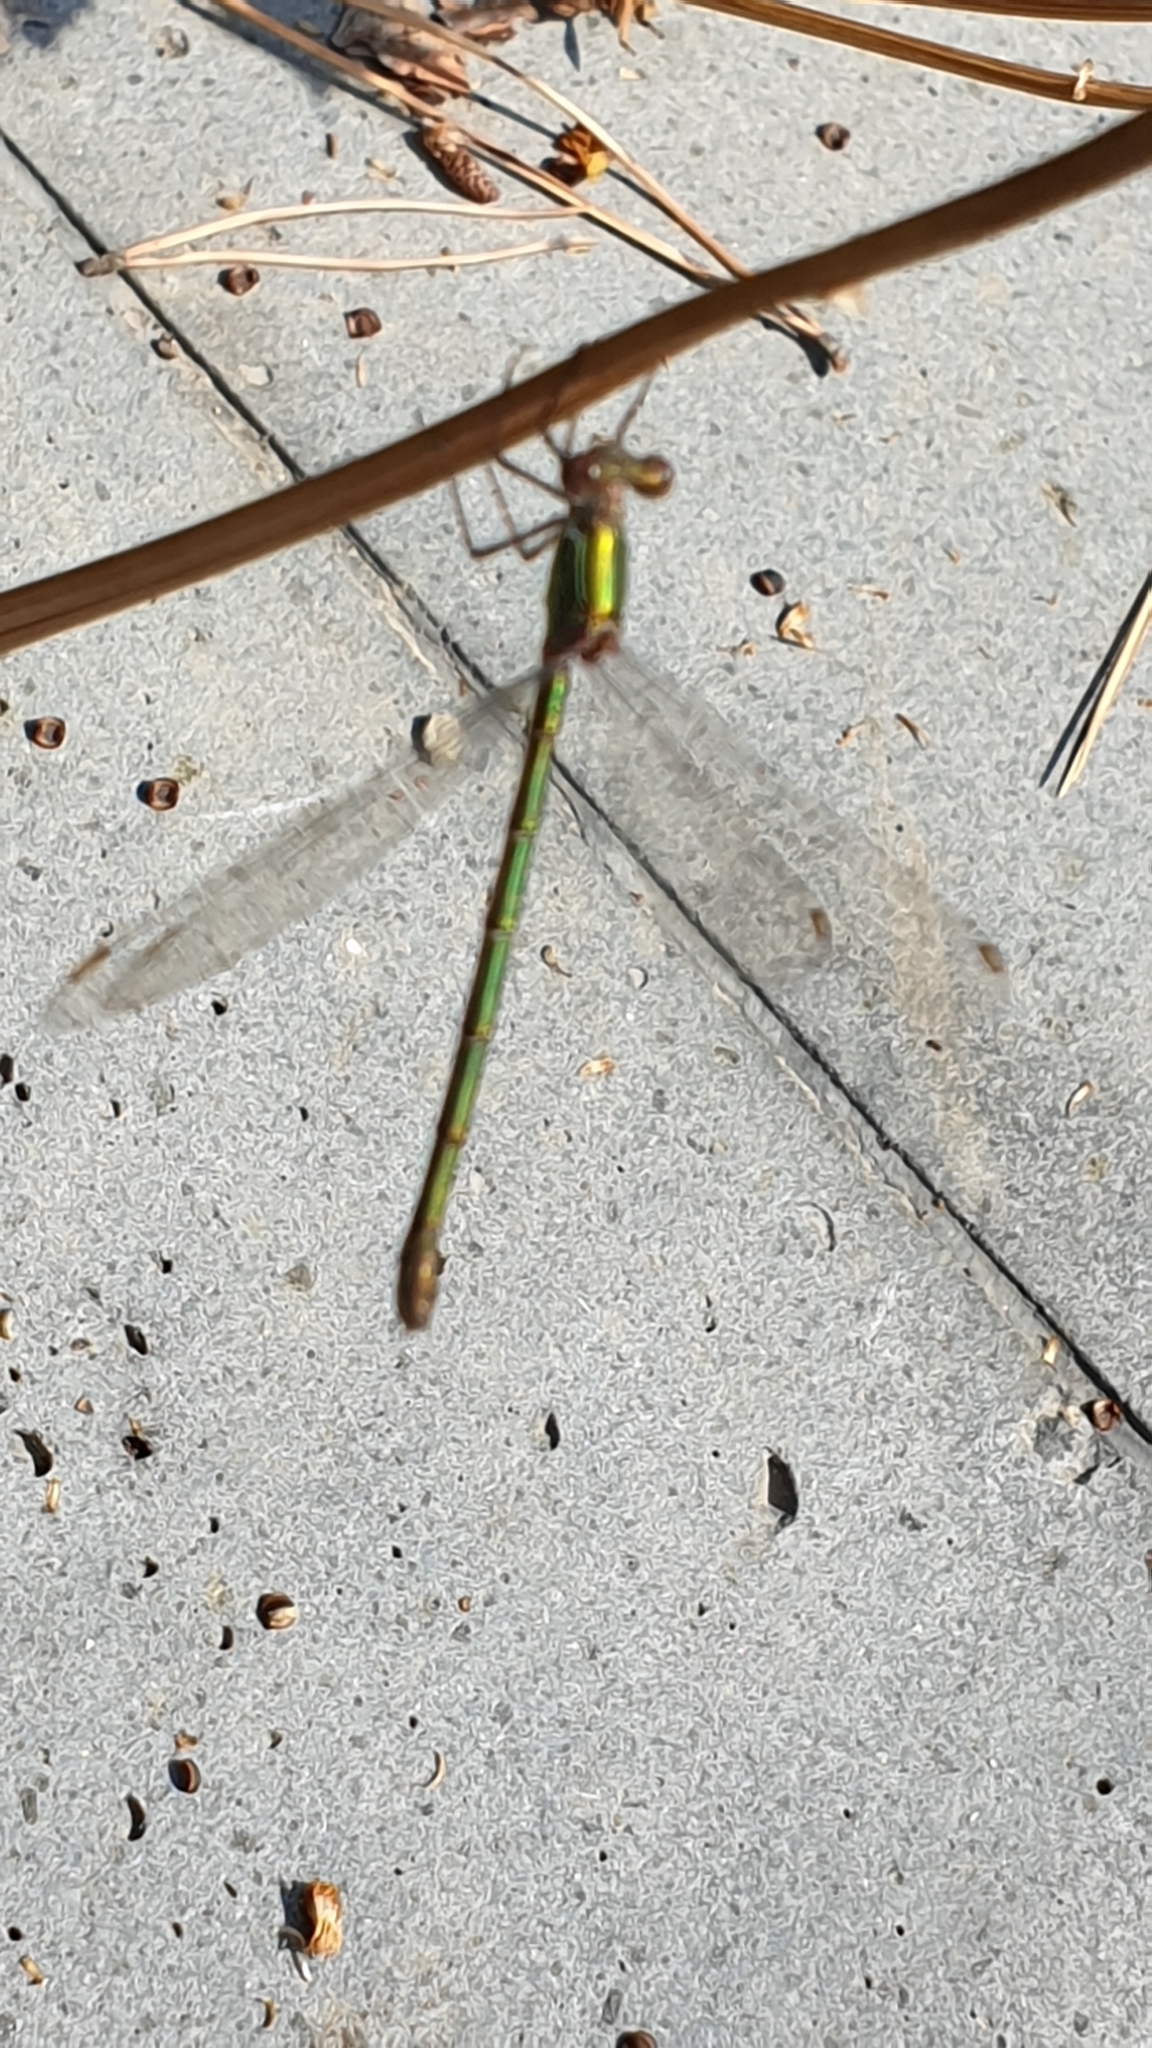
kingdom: Animalia
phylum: Arthropoda
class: Insecta
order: Odonata
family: Lestidae
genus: Chalcolestes
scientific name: Chalcolestes viridis
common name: Green emerald damselfly
